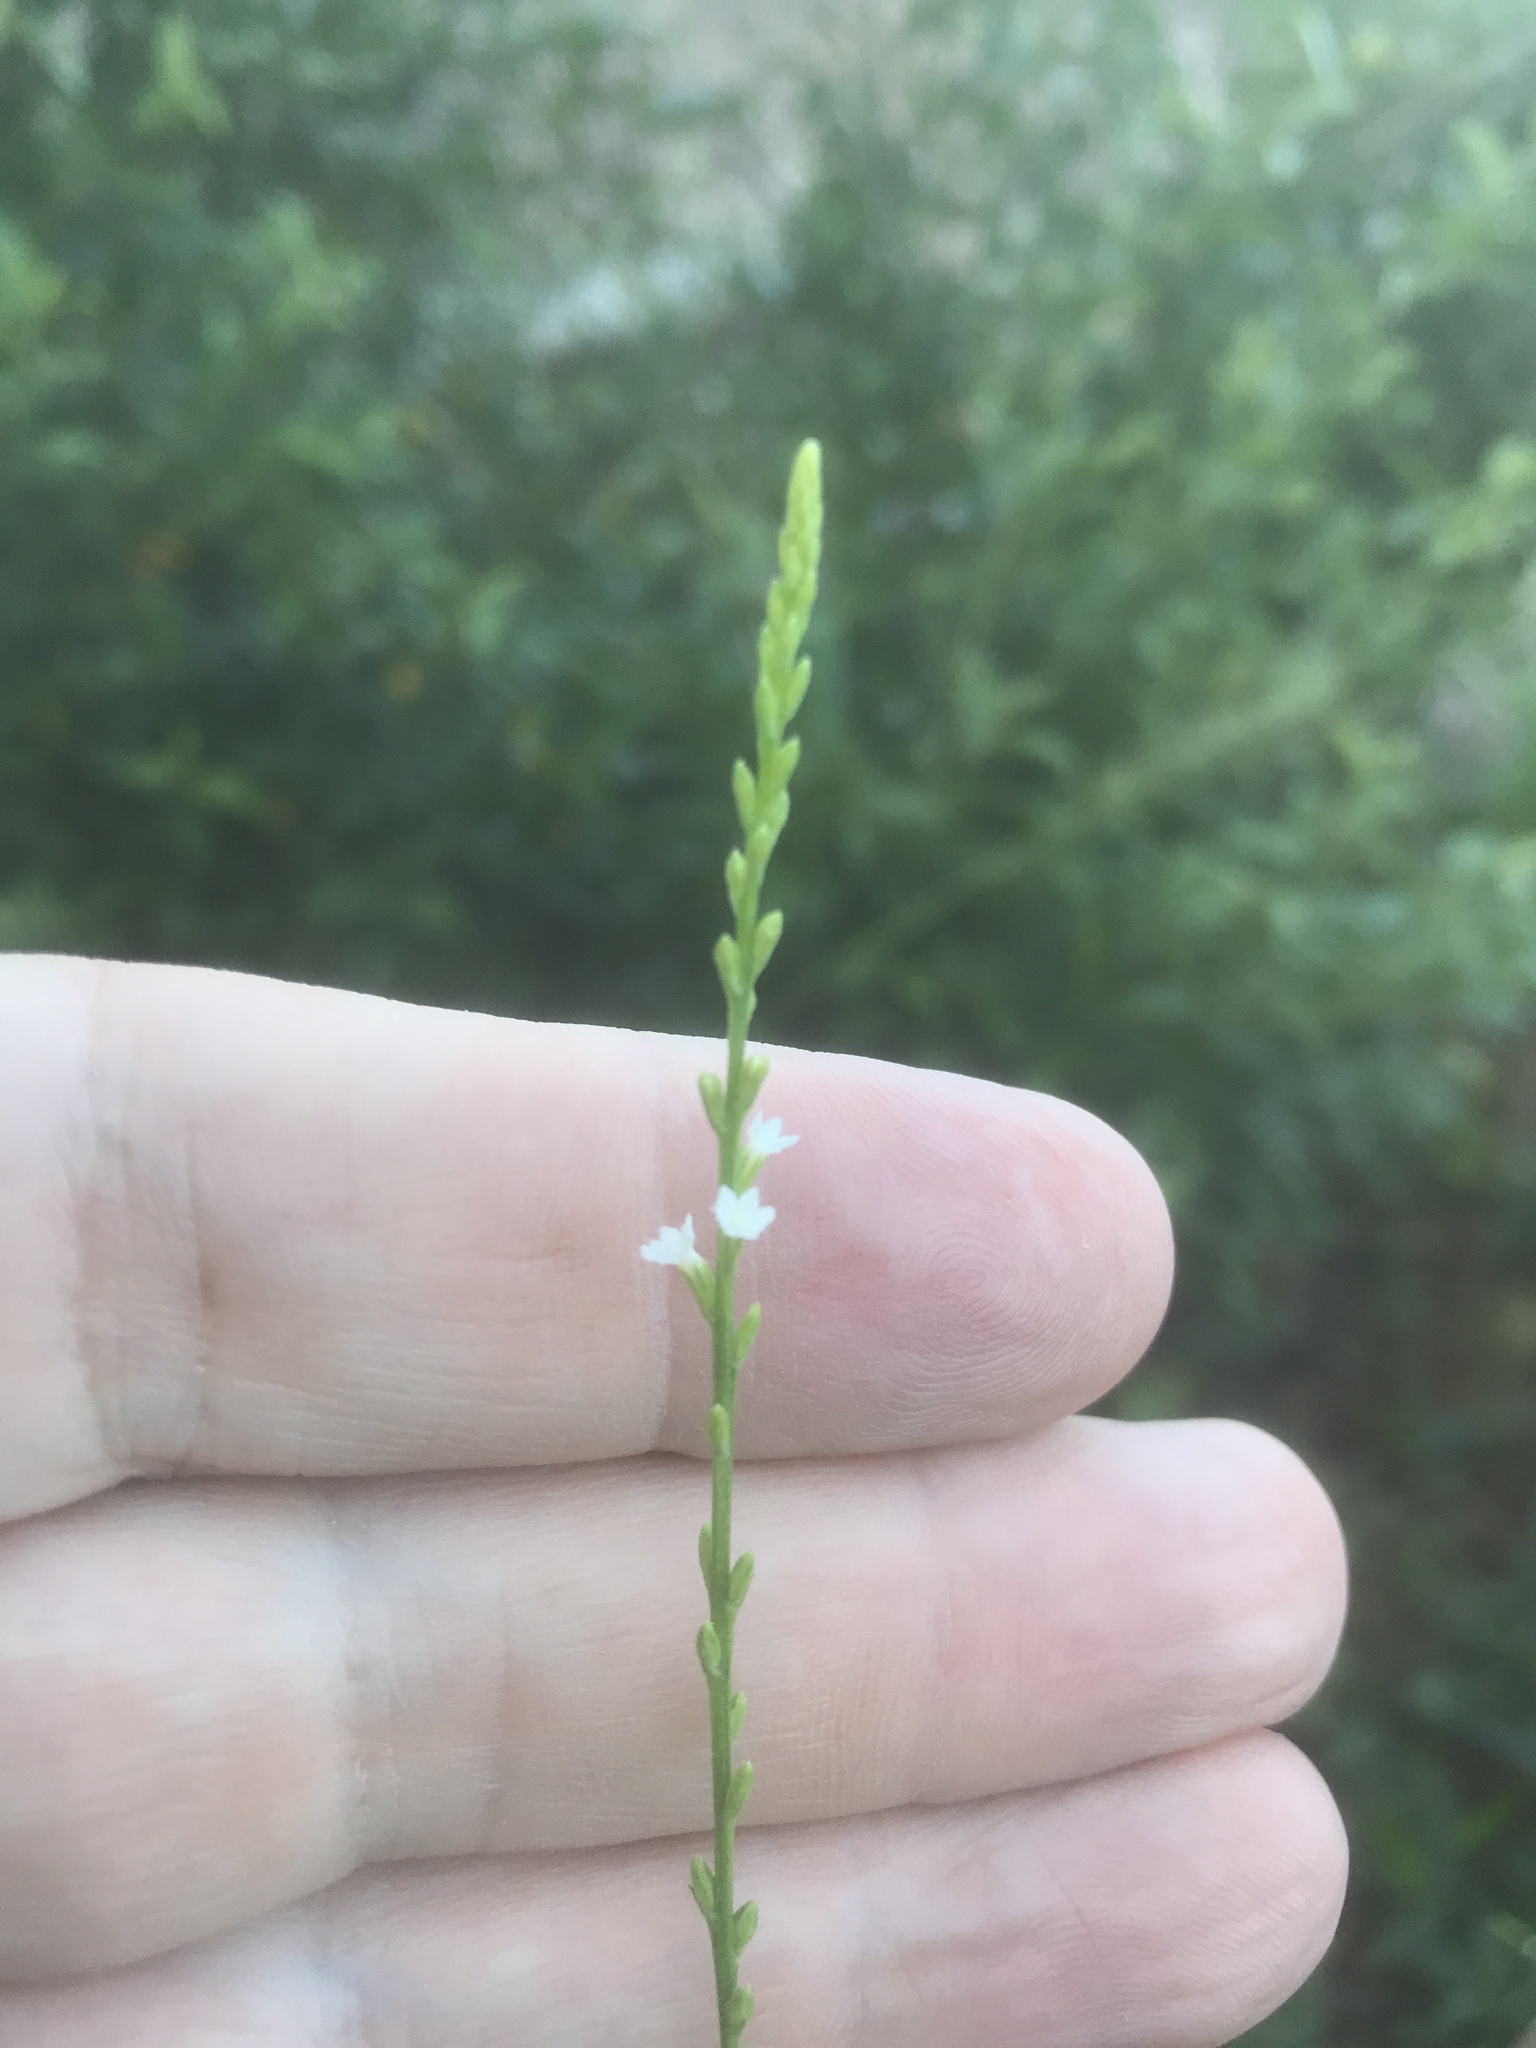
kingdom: Plantae
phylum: Tracheophyta
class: Magnoliopsida
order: Lamiales
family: Verbenaceae
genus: Verbena
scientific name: Verbena urticifolia
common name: Nettle-leaved vervain
